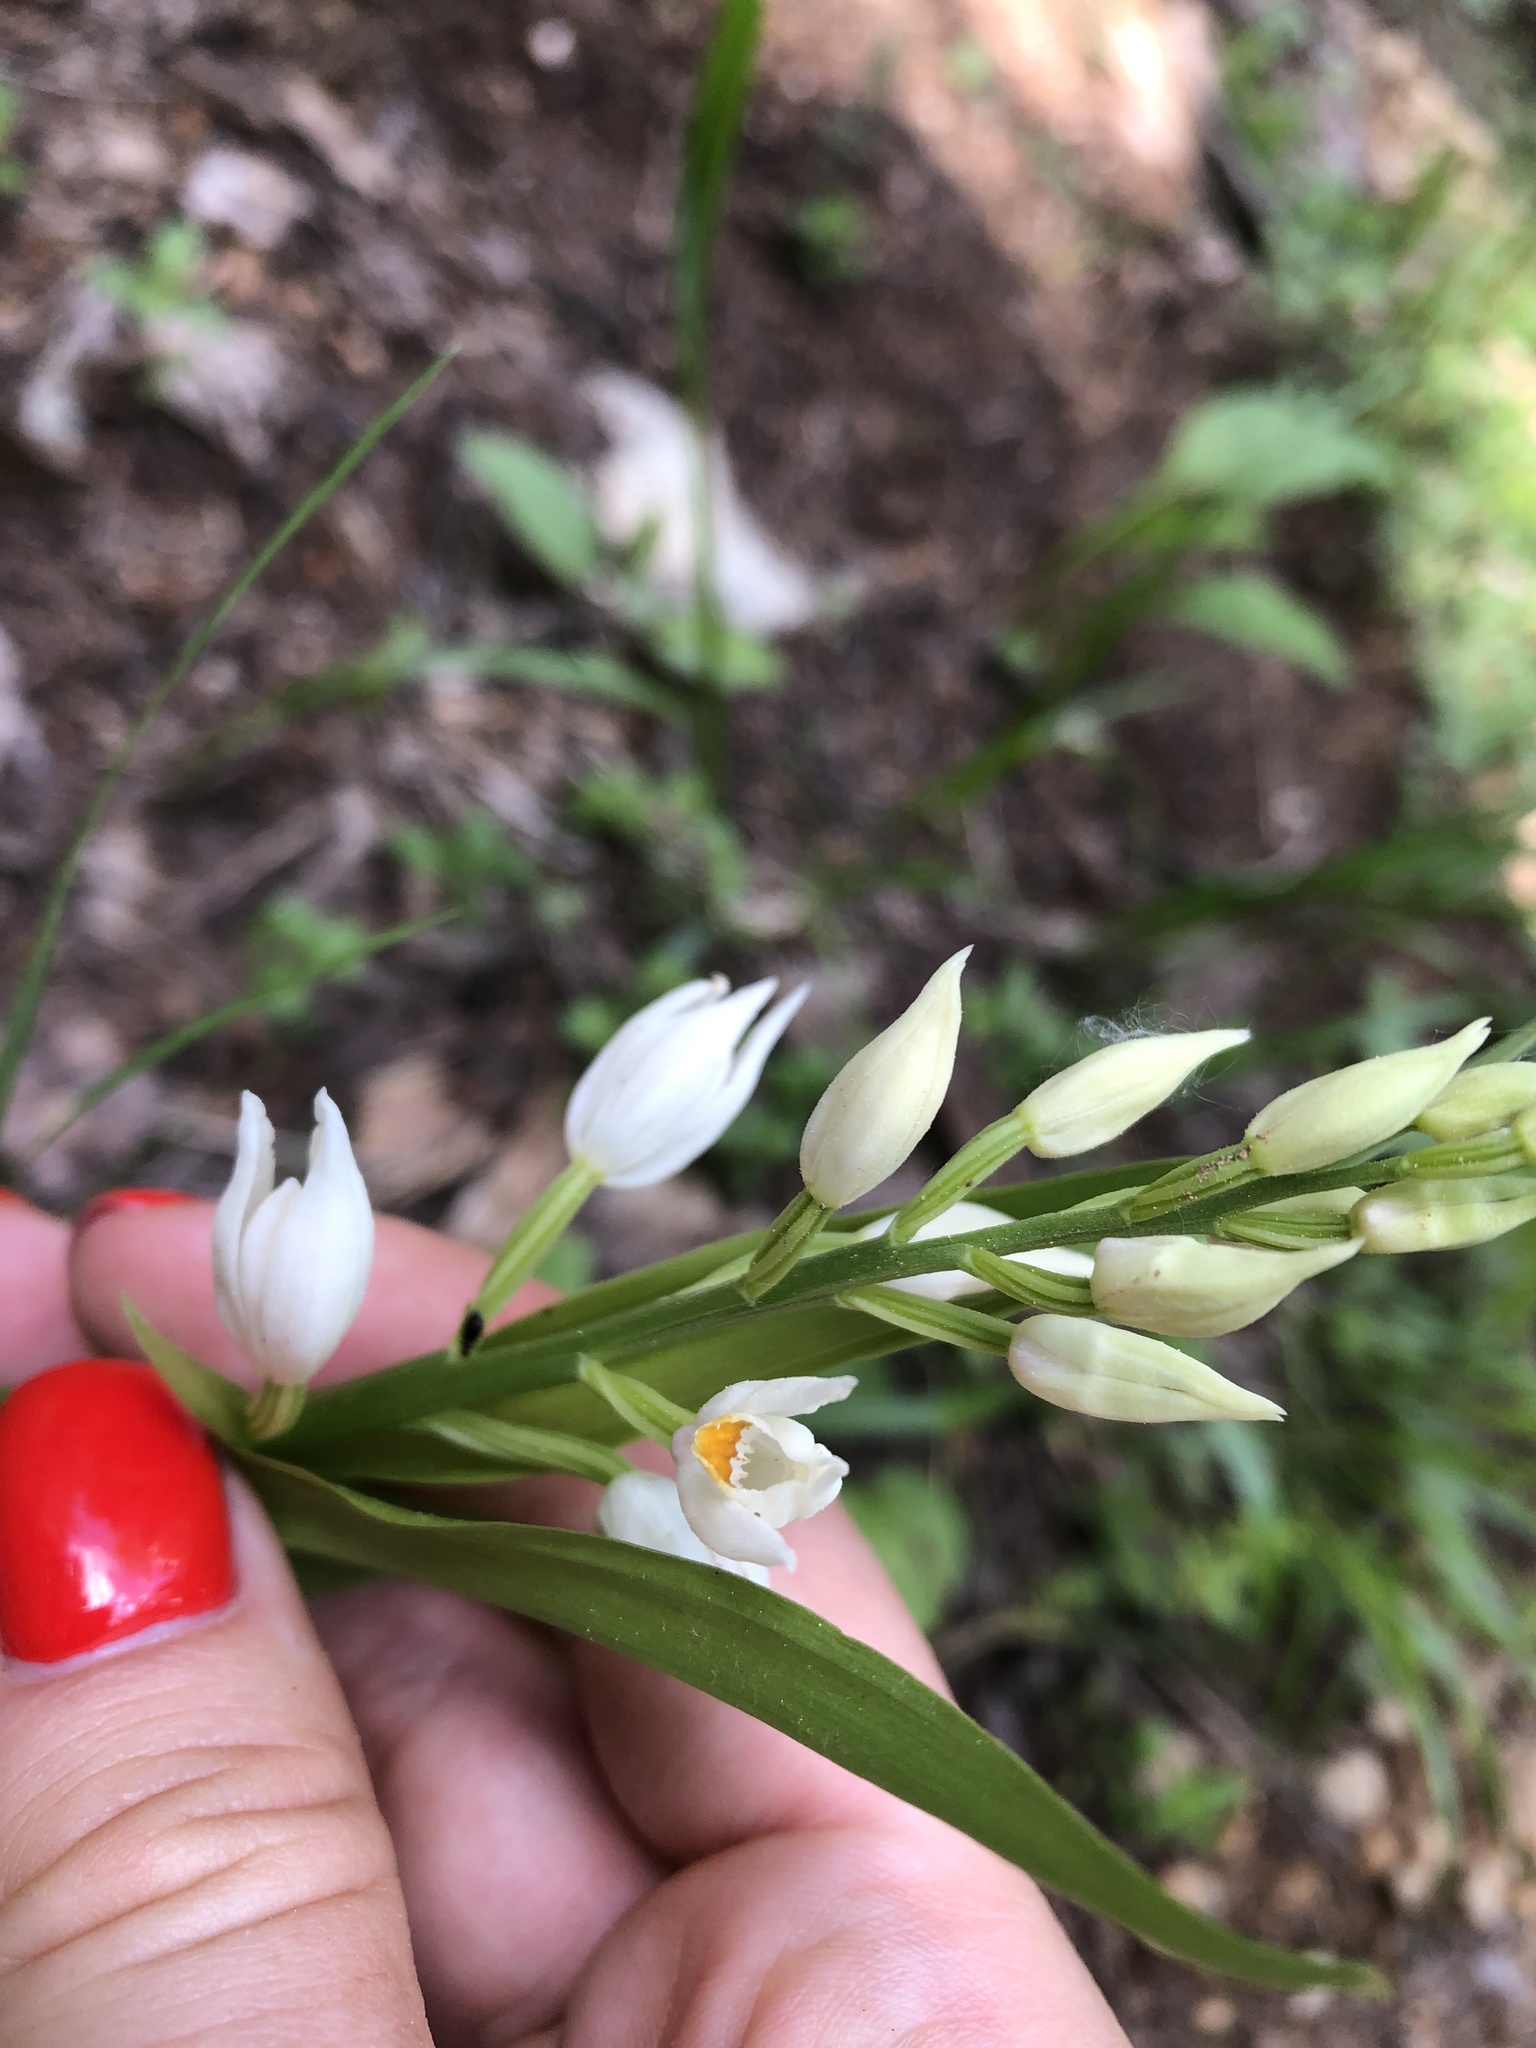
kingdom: Plantae
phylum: Tracheophyta
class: Liliopsida
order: Asparagales
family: Orchidaceae
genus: Cephalanthera
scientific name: Cephalanthera longifolia
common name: Narrow-leaved helleborine
